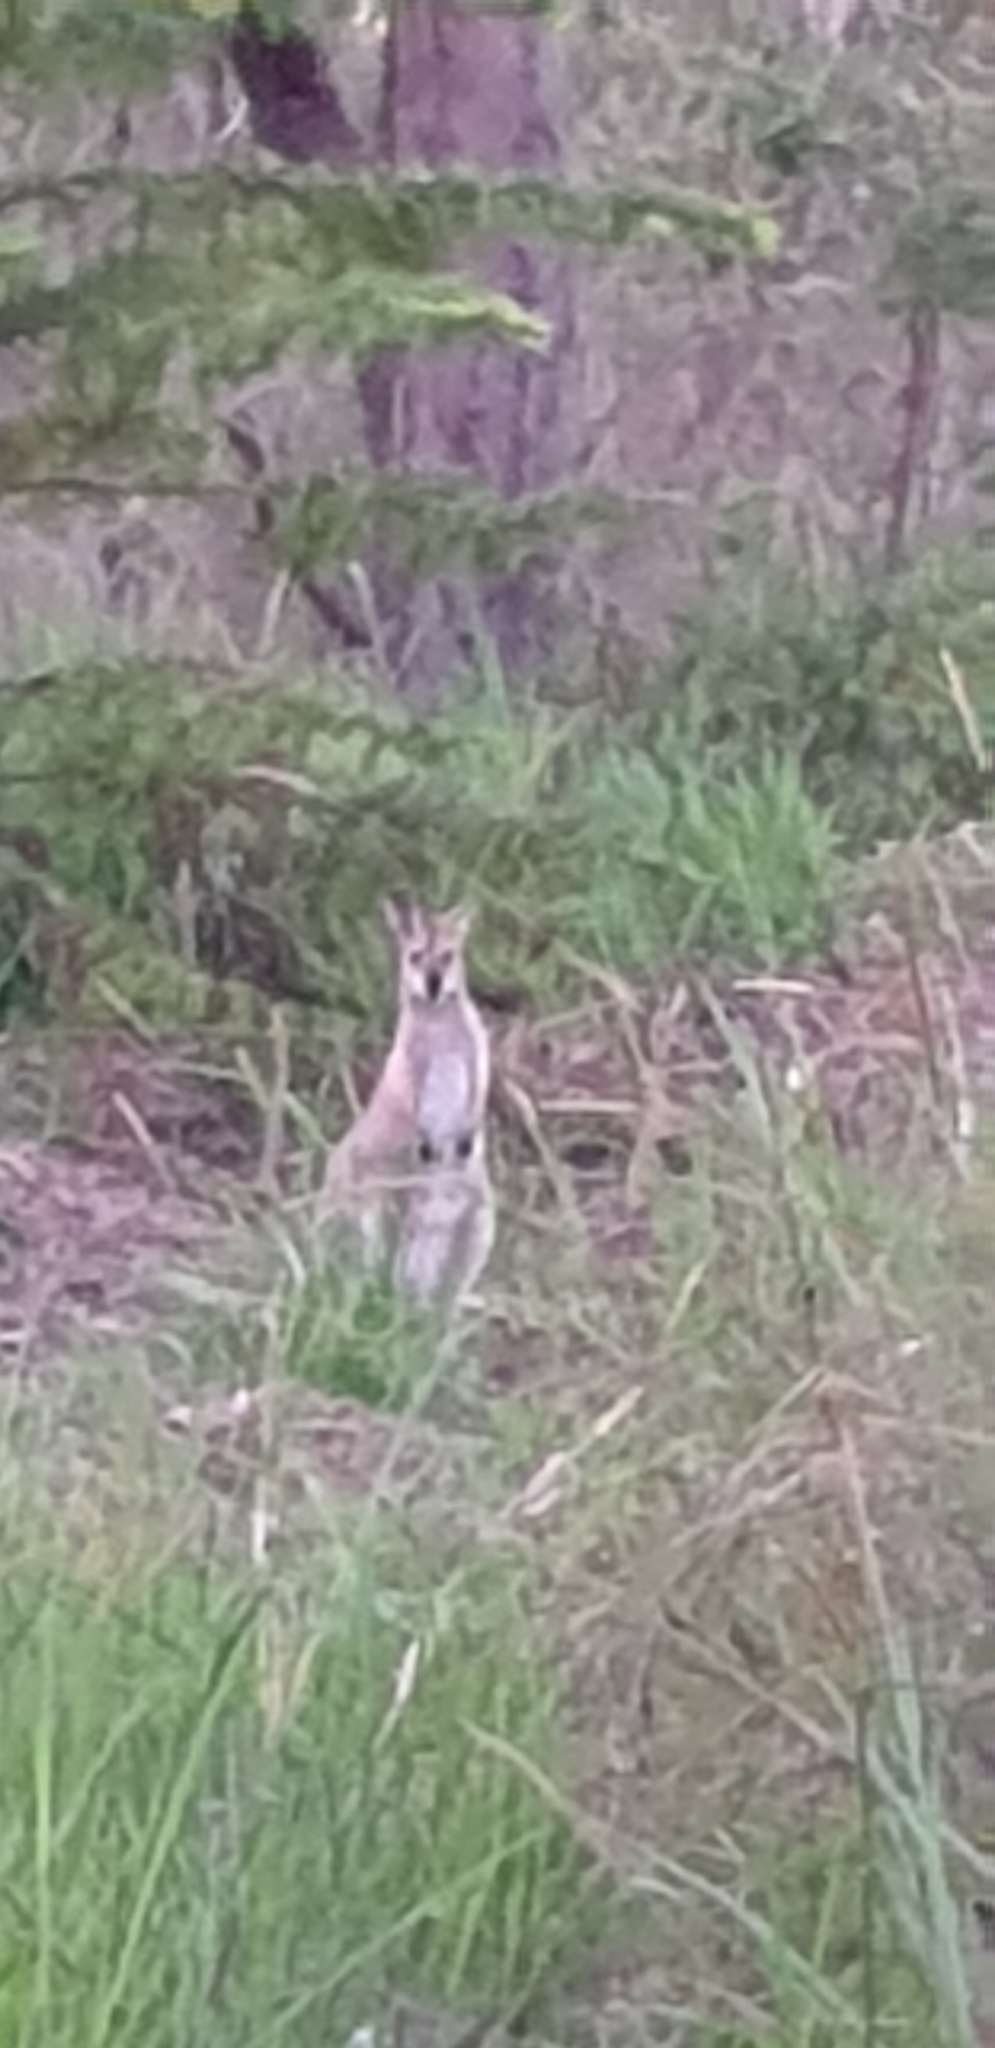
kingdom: Animalia
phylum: Chordata
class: Mammalia
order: Diprotodontia
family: Macropodidae
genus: Notamacropus
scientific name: Notamacropus rufogriseus
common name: Red-necked wallaby
